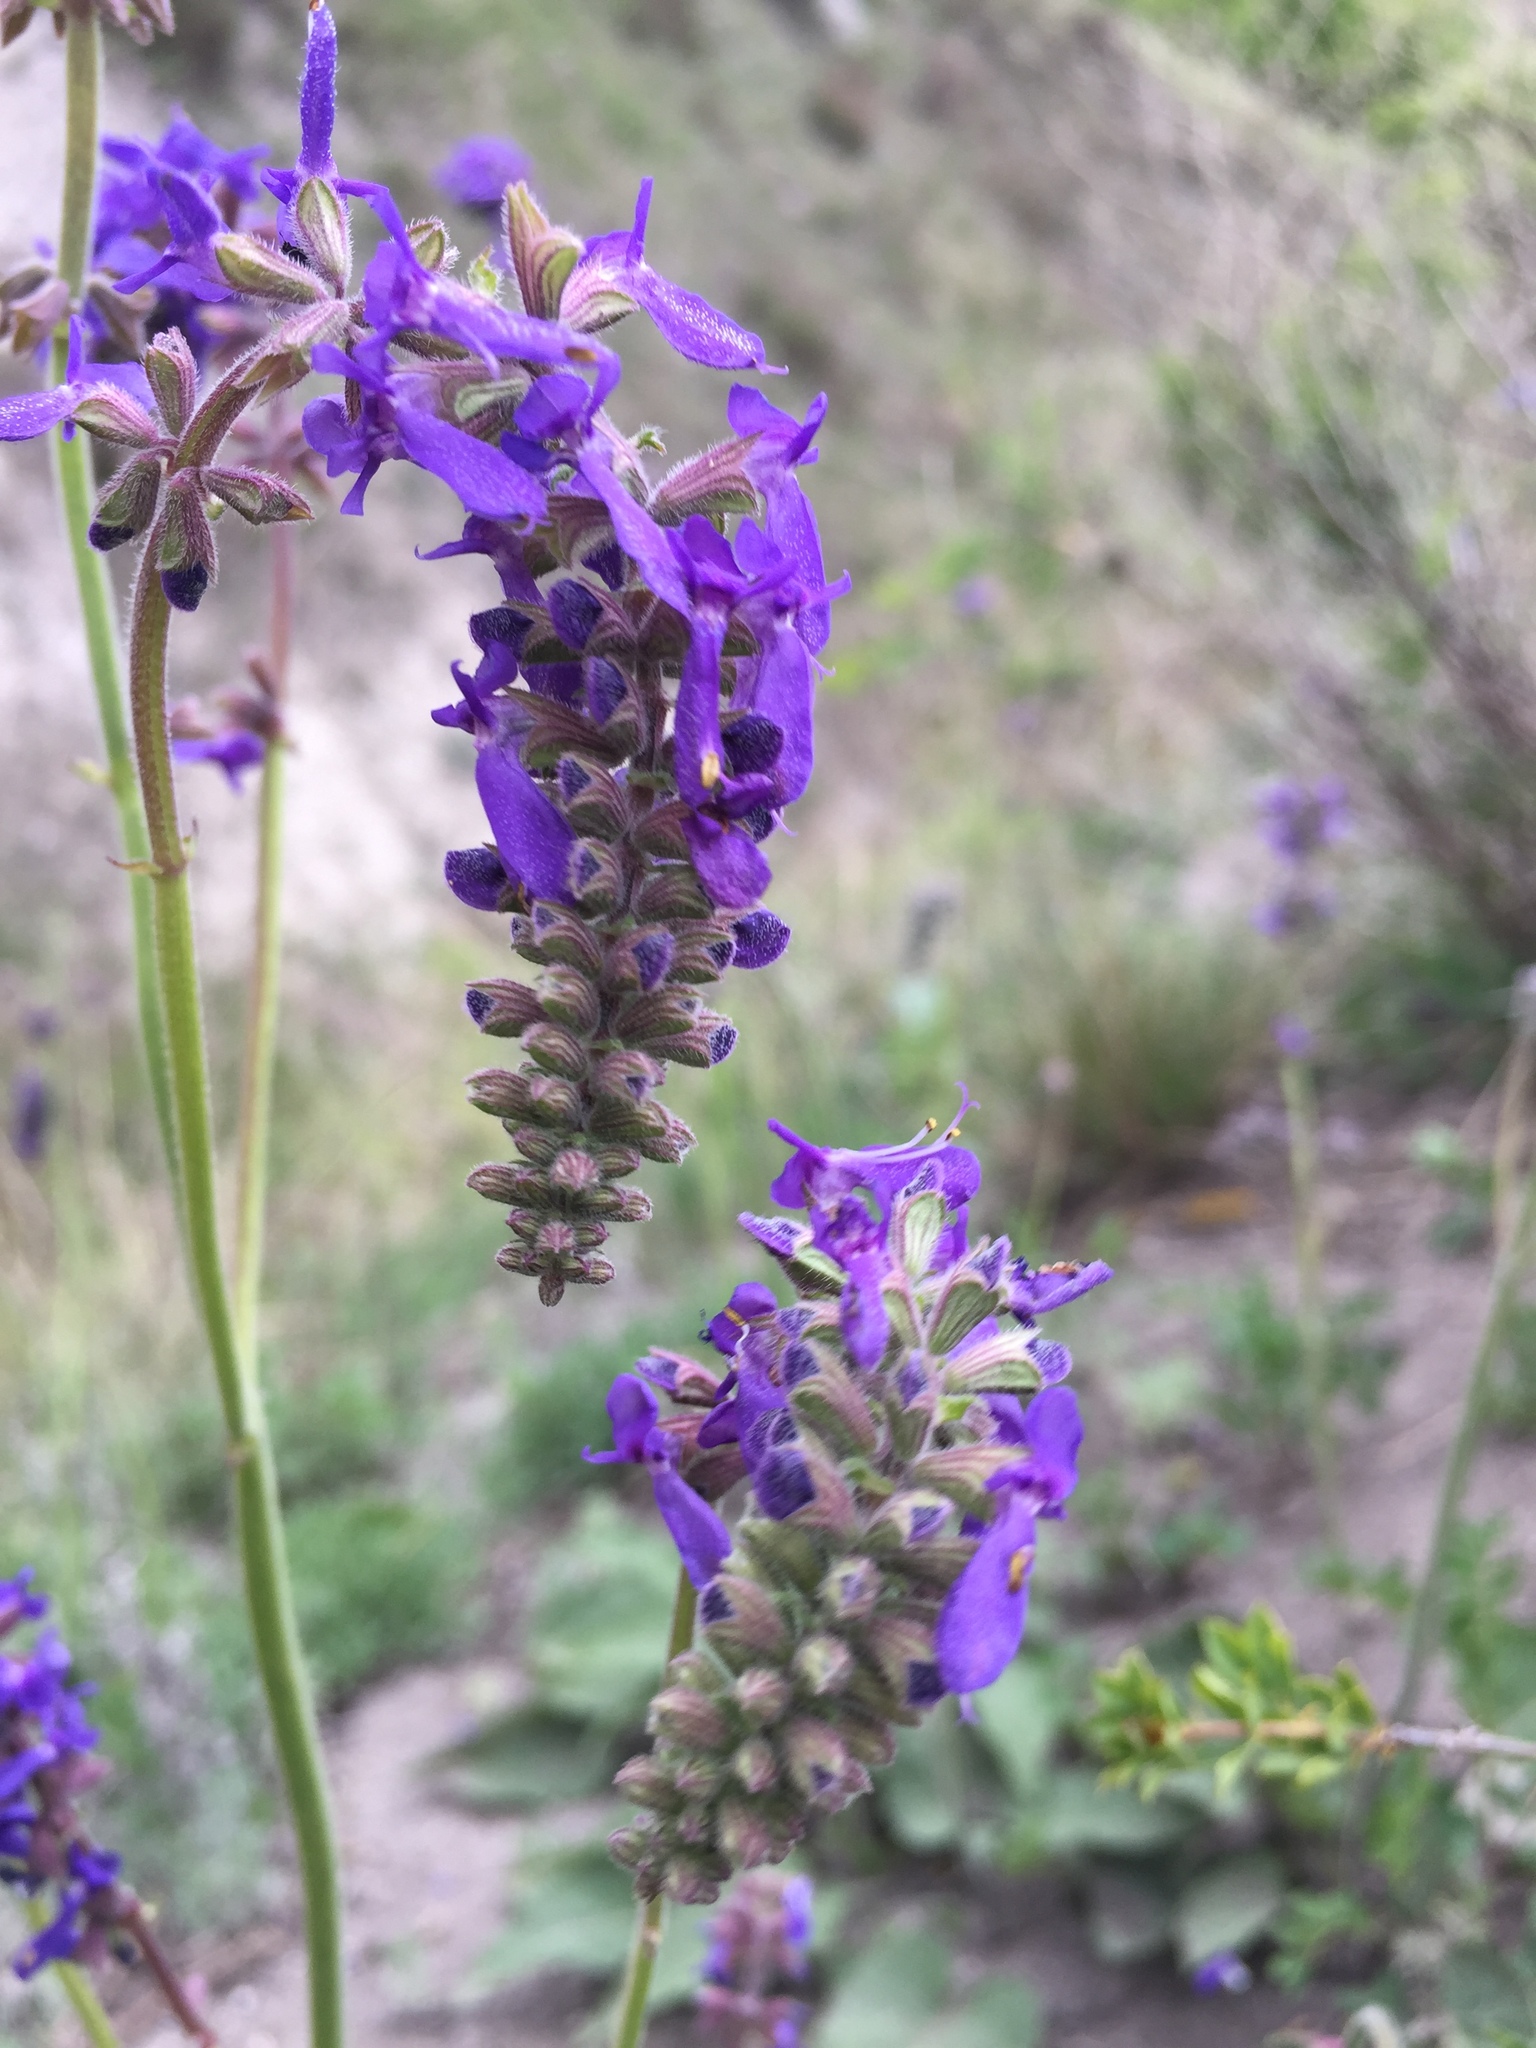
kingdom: Plantae
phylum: Tracheophyta
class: Magnoliopsida
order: Lamiales
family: Lamiaceae
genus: Salvia
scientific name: Salvia nutans
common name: Nodding sage
